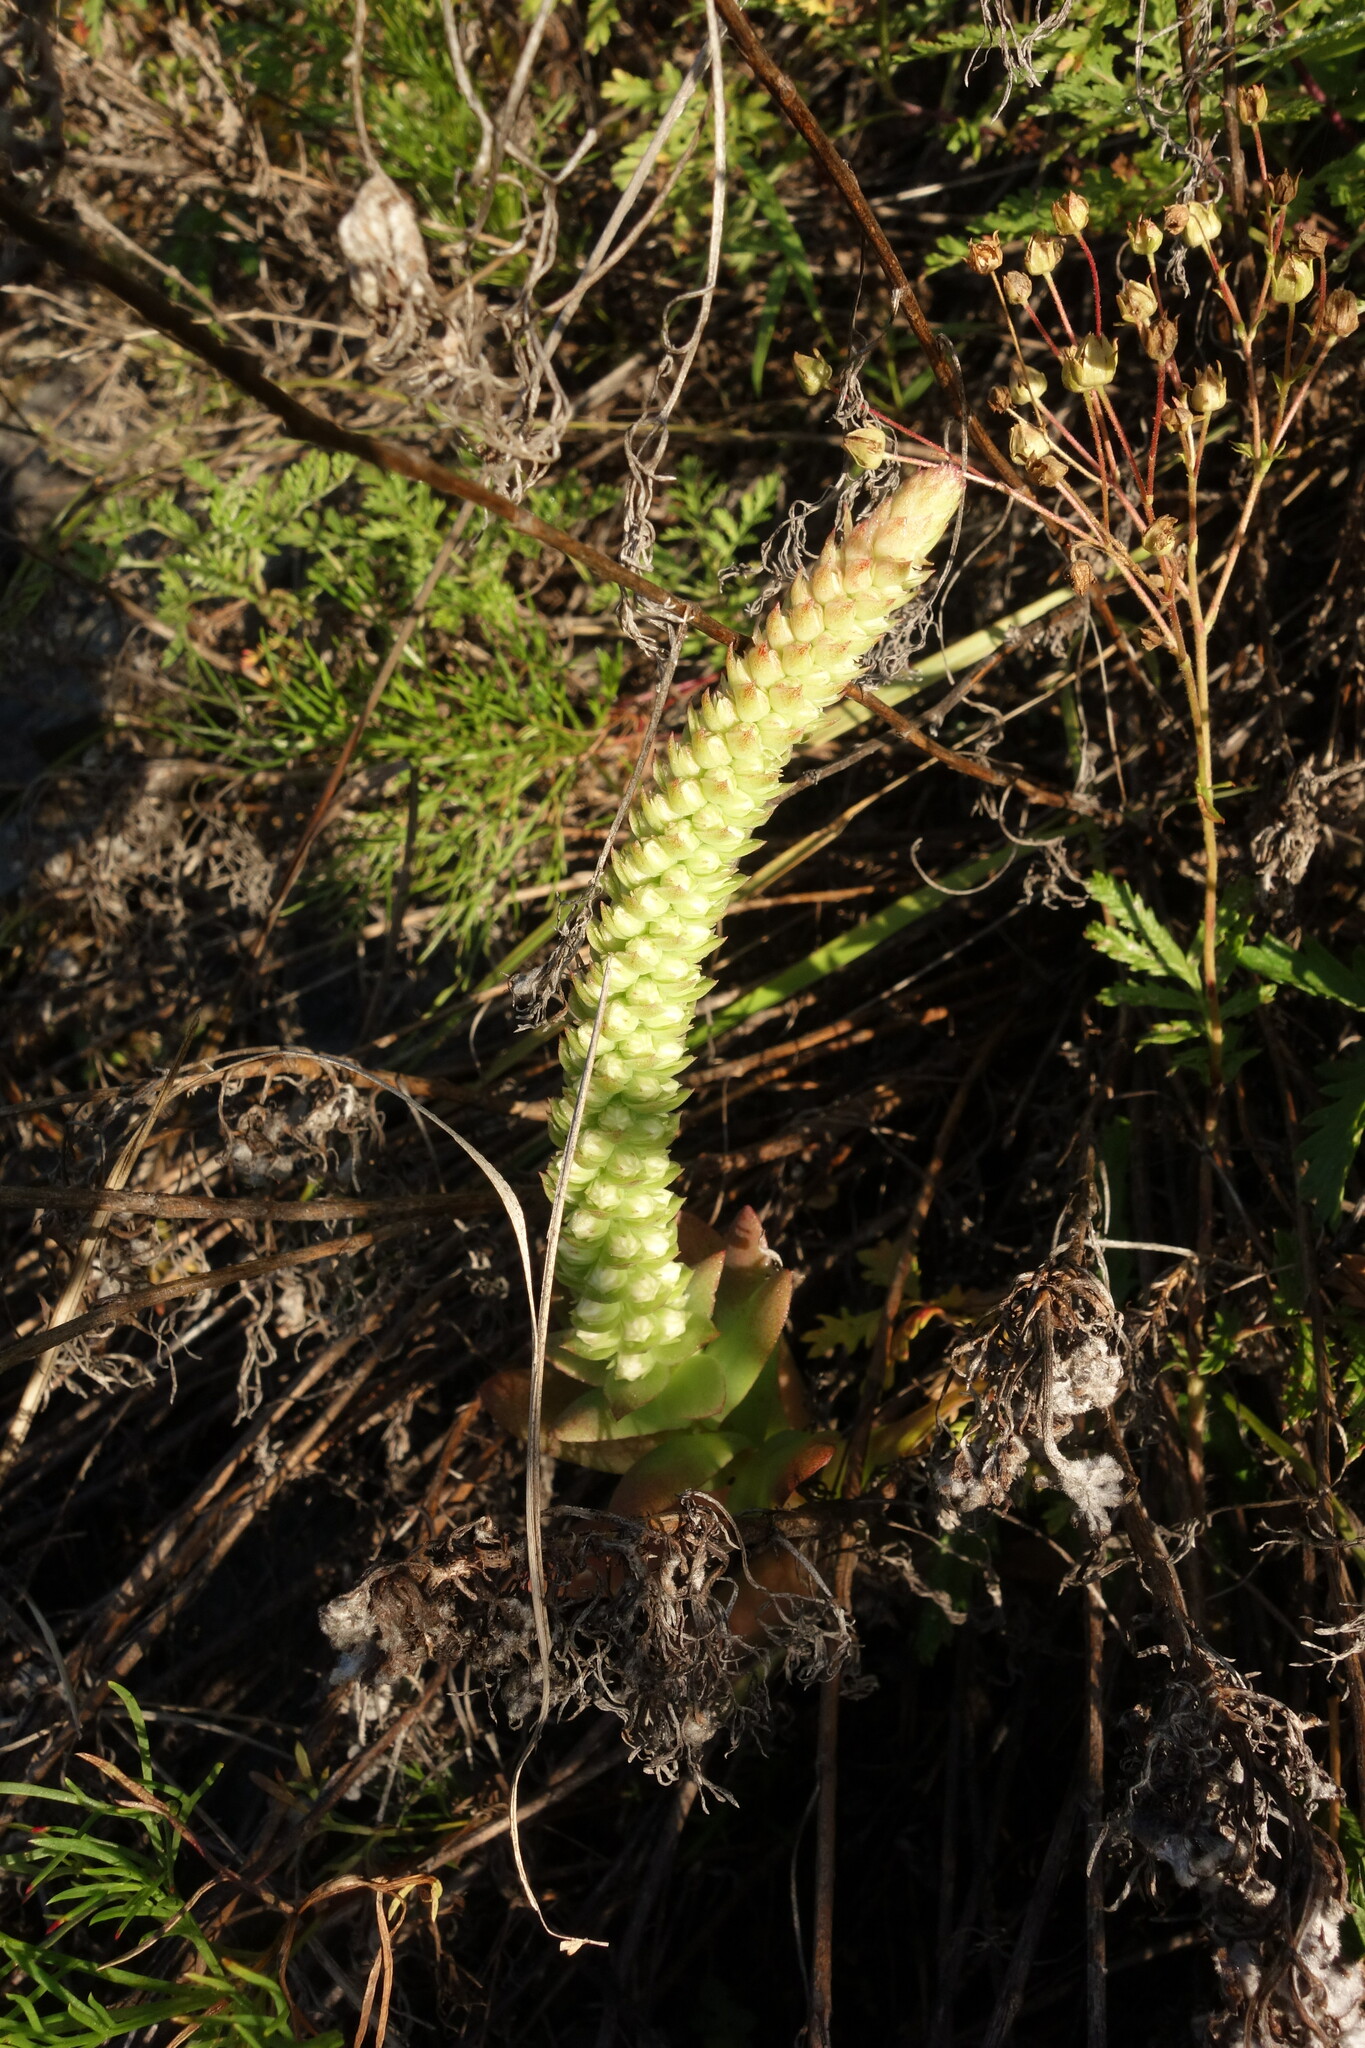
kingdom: Plantae
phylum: Tracheophyta
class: Magnoliopsida
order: Saxifragales
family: Crassulaceae
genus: Orostachys
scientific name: Orostachys malacophylla
